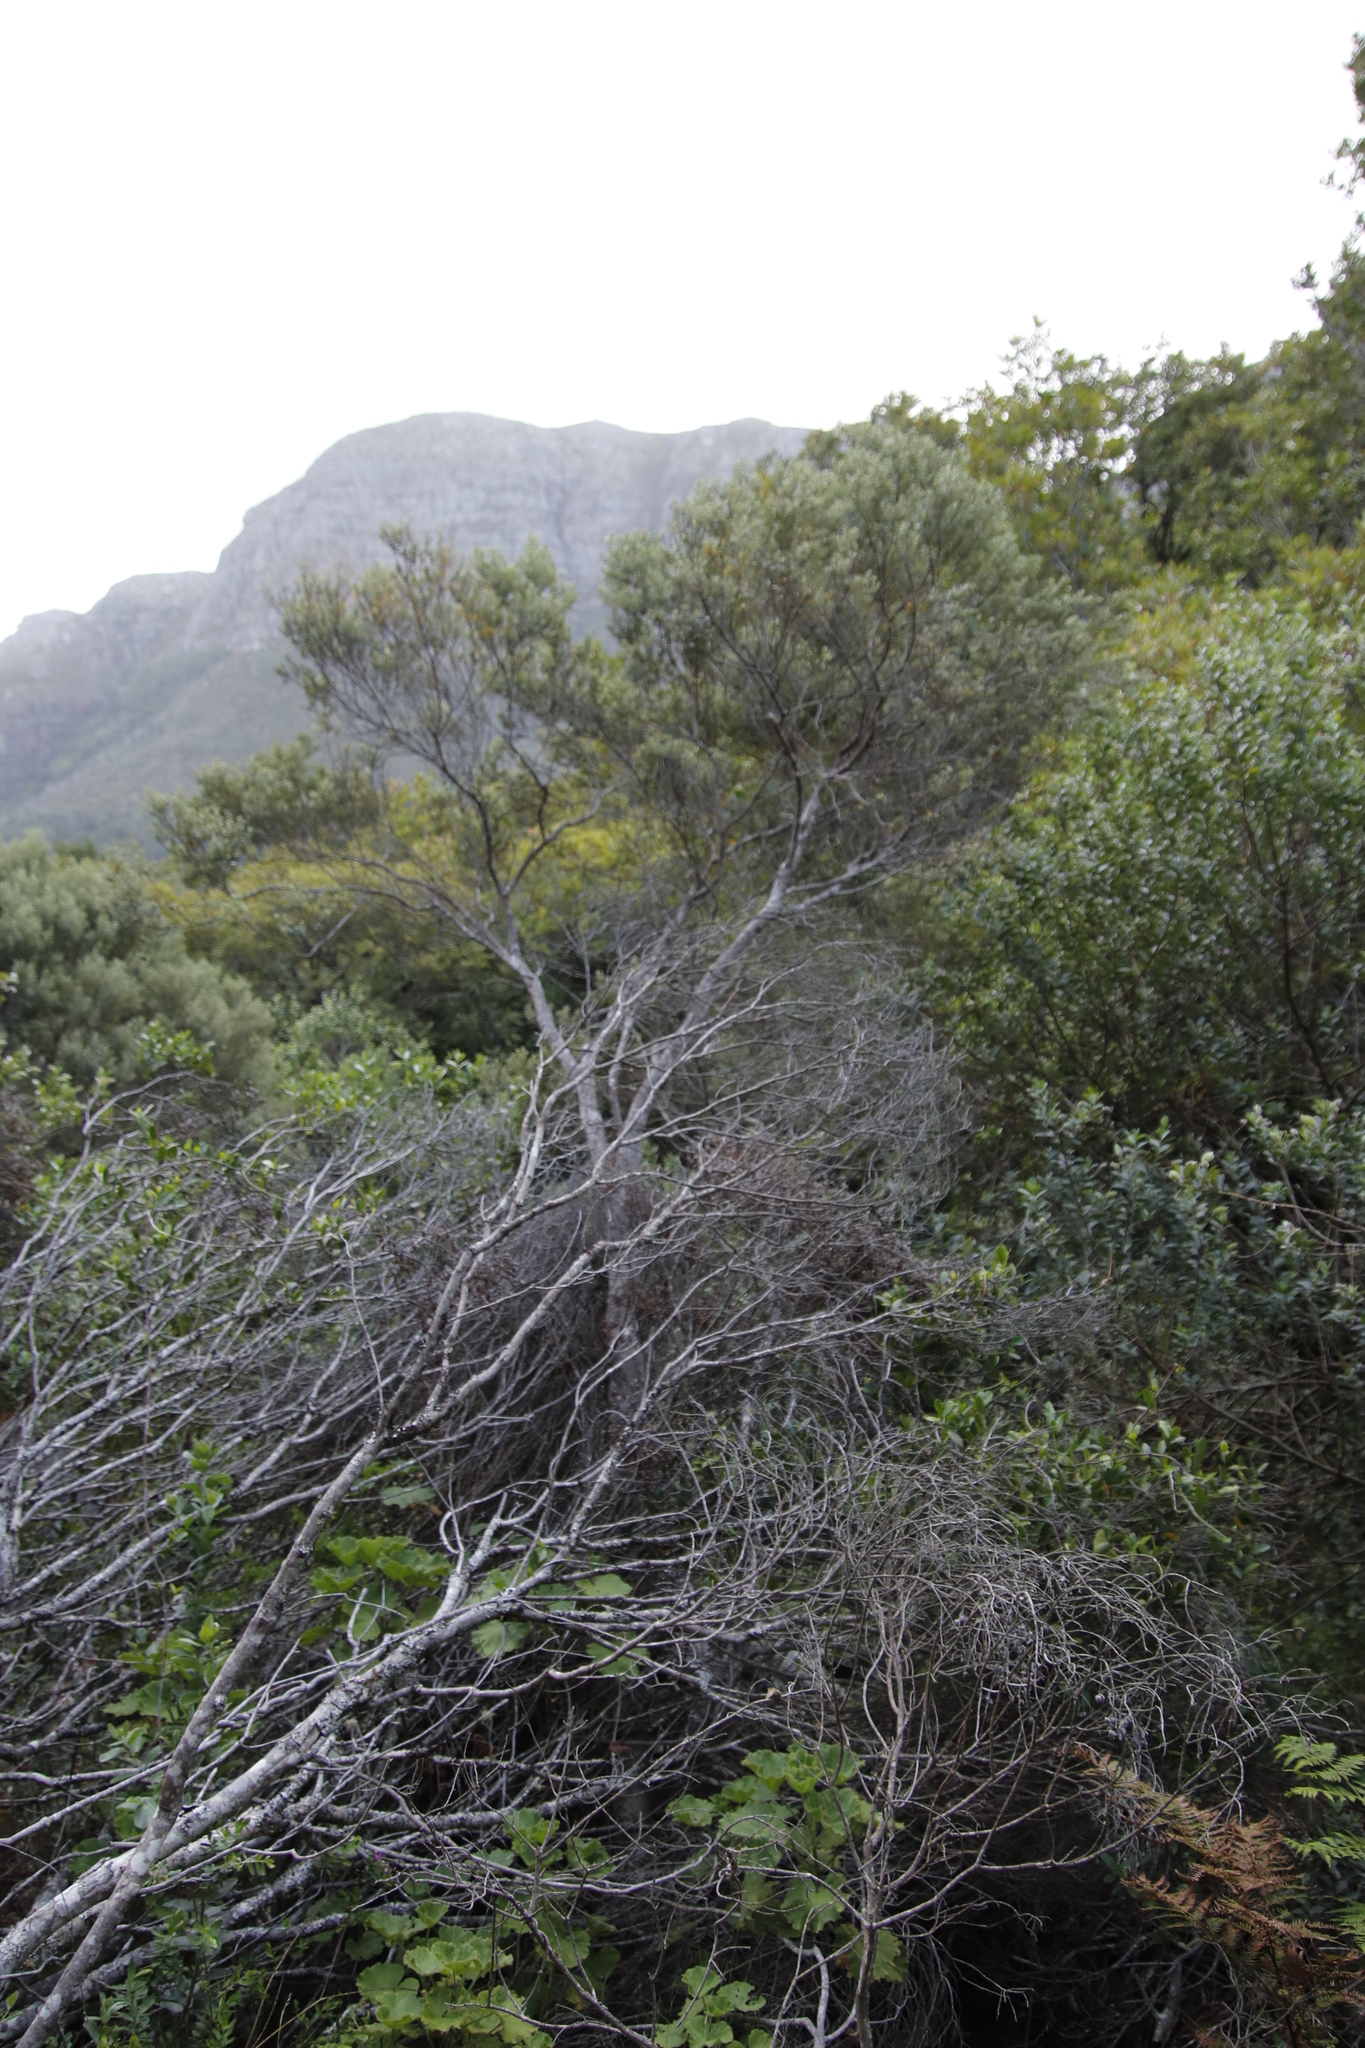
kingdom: Plantae
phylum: Tracheophyta
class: Magnoliopsida
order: Rosales
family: Rhamnaceae
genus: Phylica
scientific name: Phylica buxifolia
